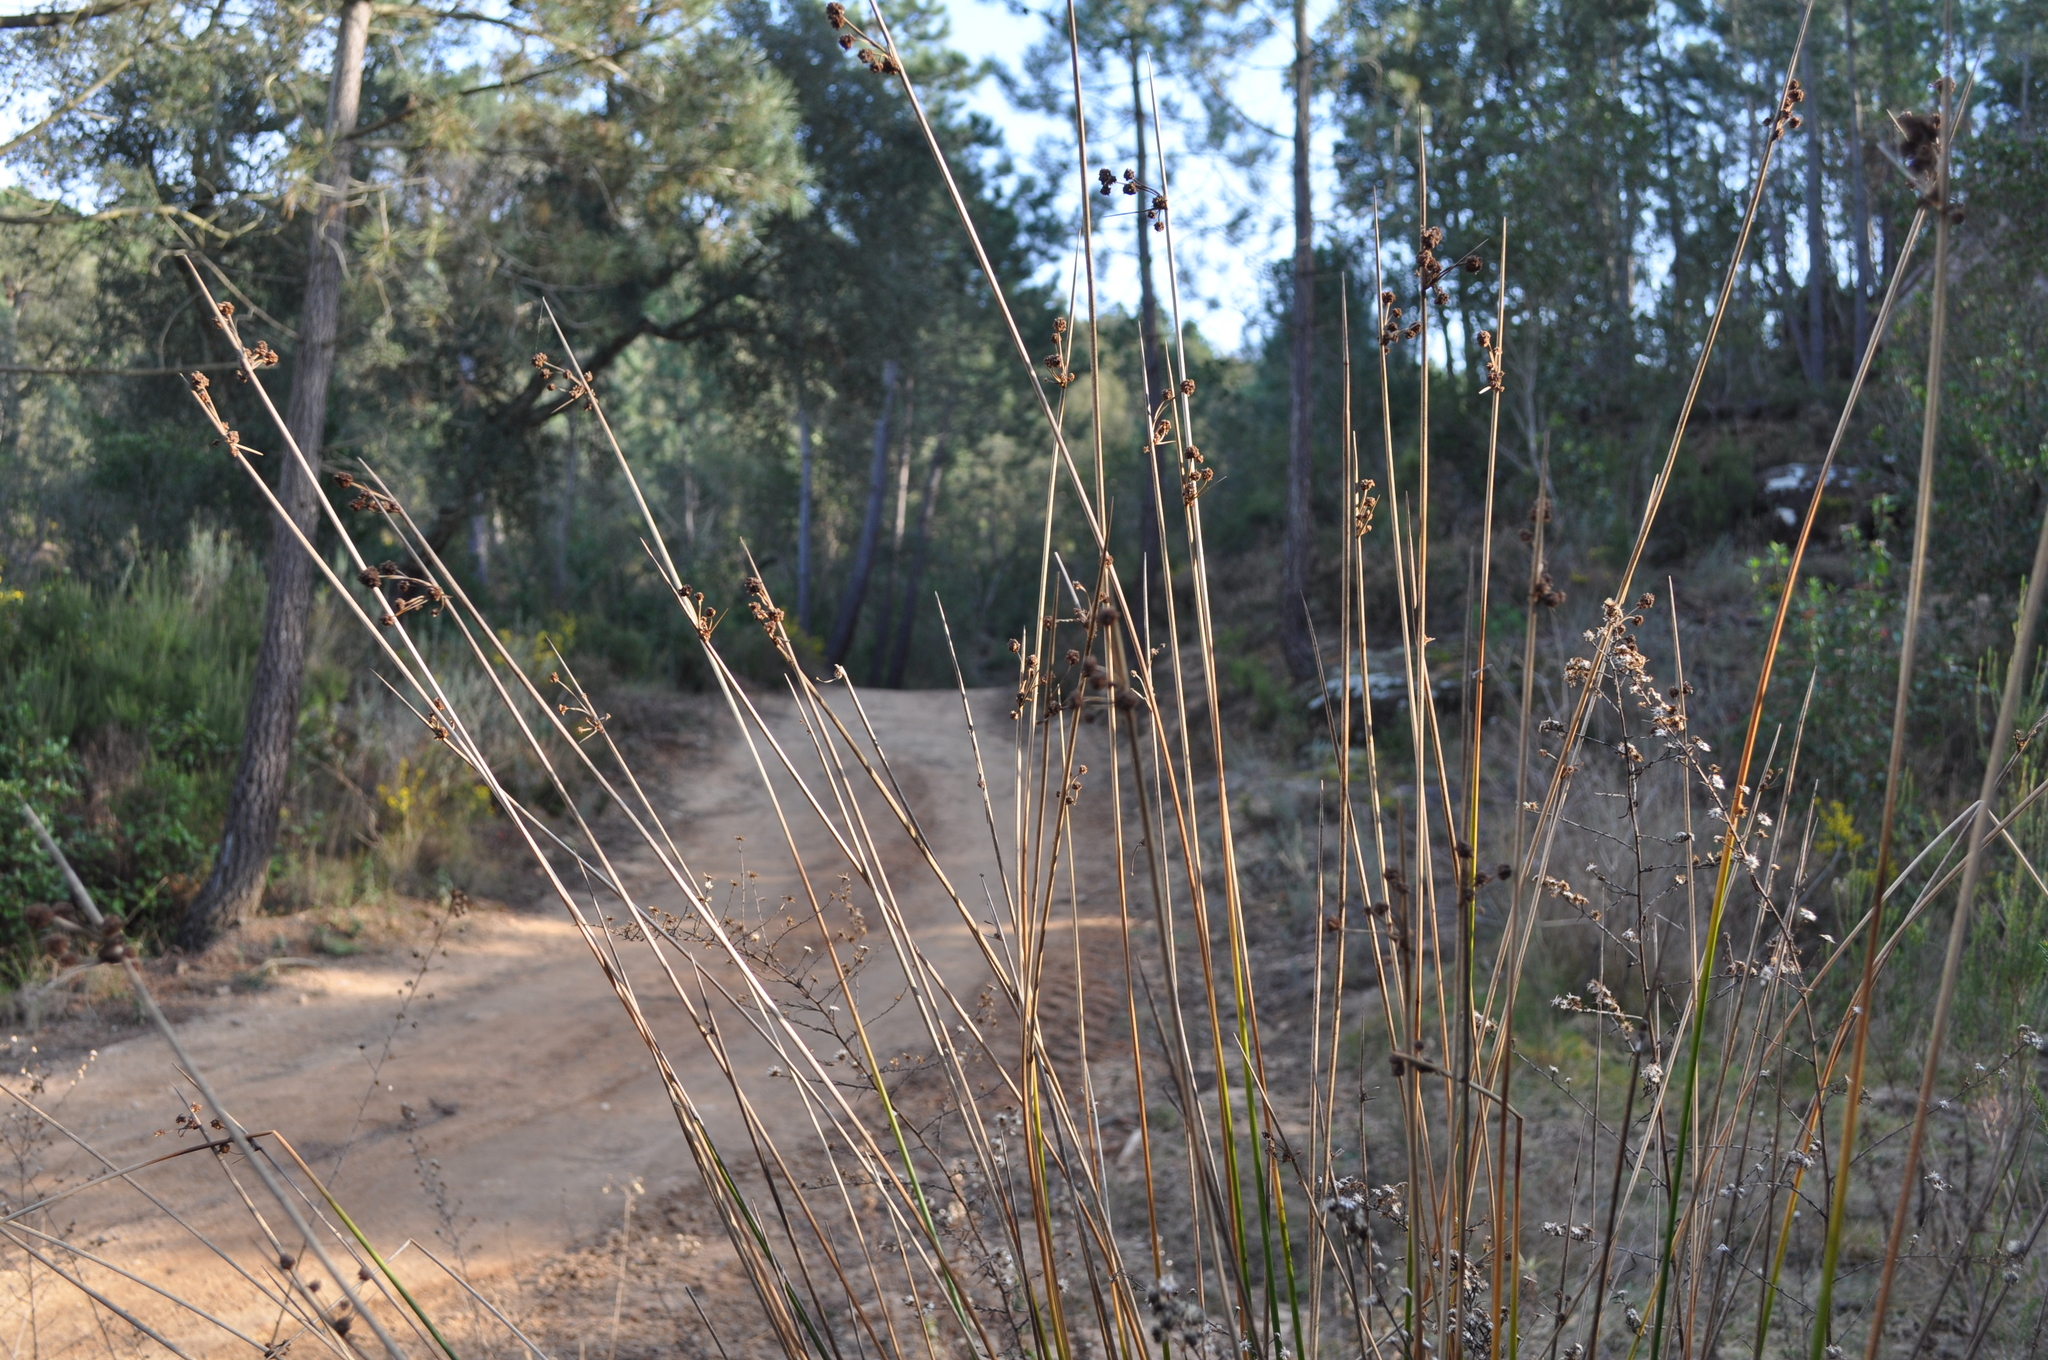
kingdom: Plantae
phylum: Tracheophyta
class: Liliopsida
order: Poales
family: Cyperaceae
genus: Scirpoides
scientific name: Scirpoides holoschoenus
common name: Round-headed club-rush
